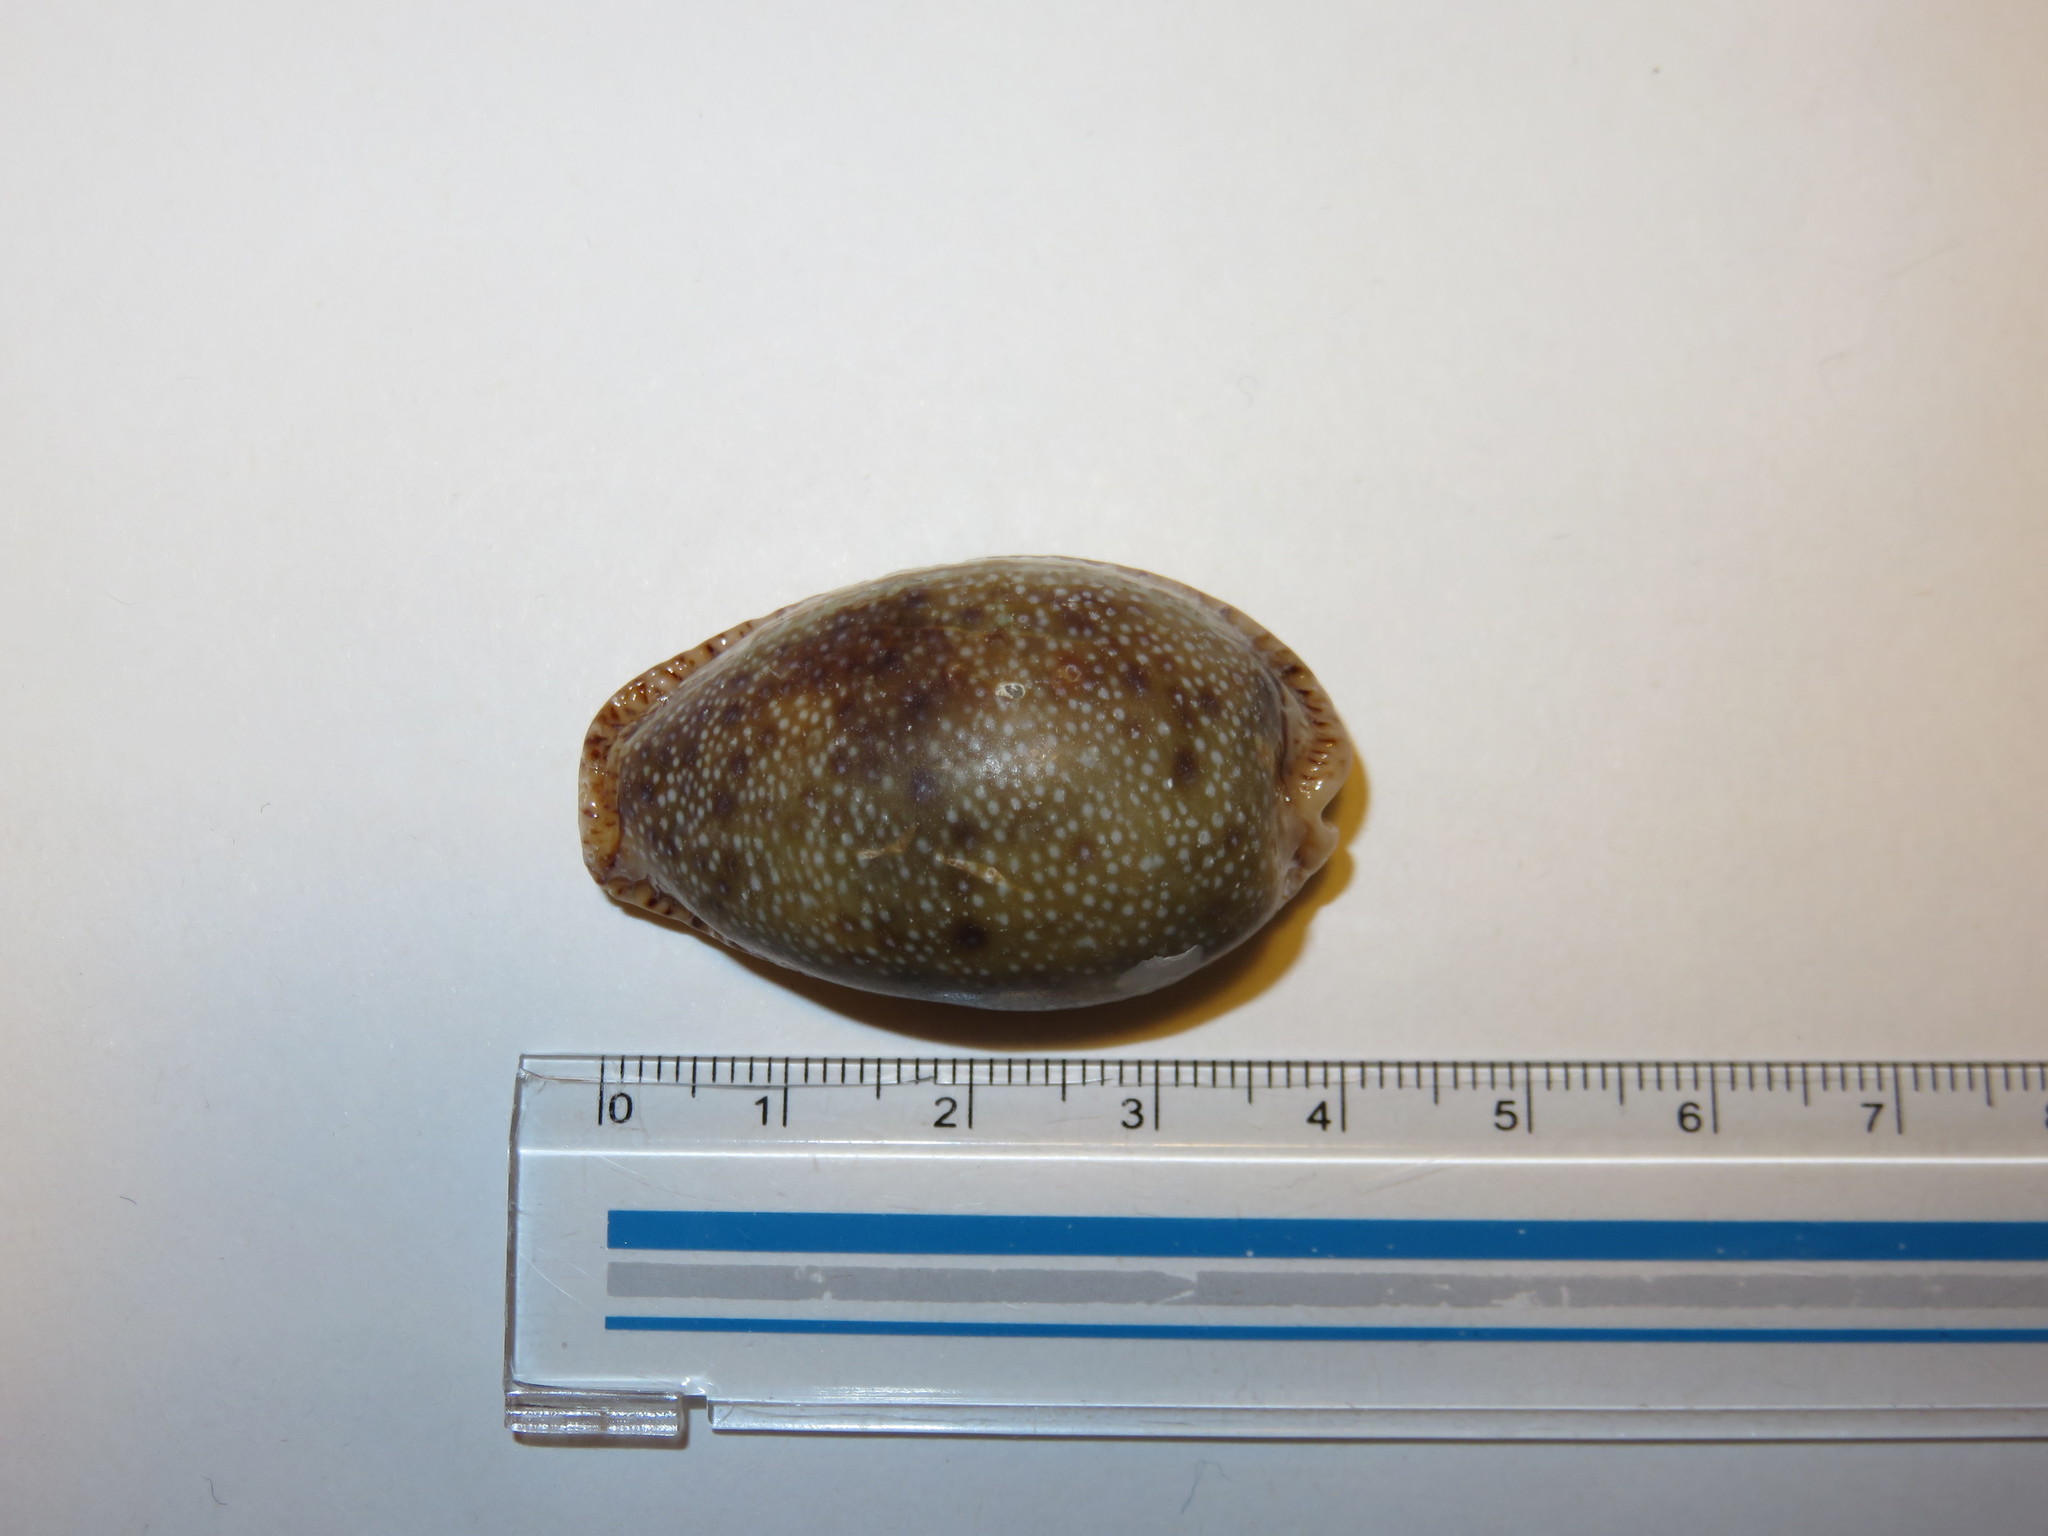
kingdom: Animalia
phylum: Mollusca
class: Gastropoda
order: Littorinimorpha
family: Cypraeidae
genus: Naria
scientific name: Naria erosa
